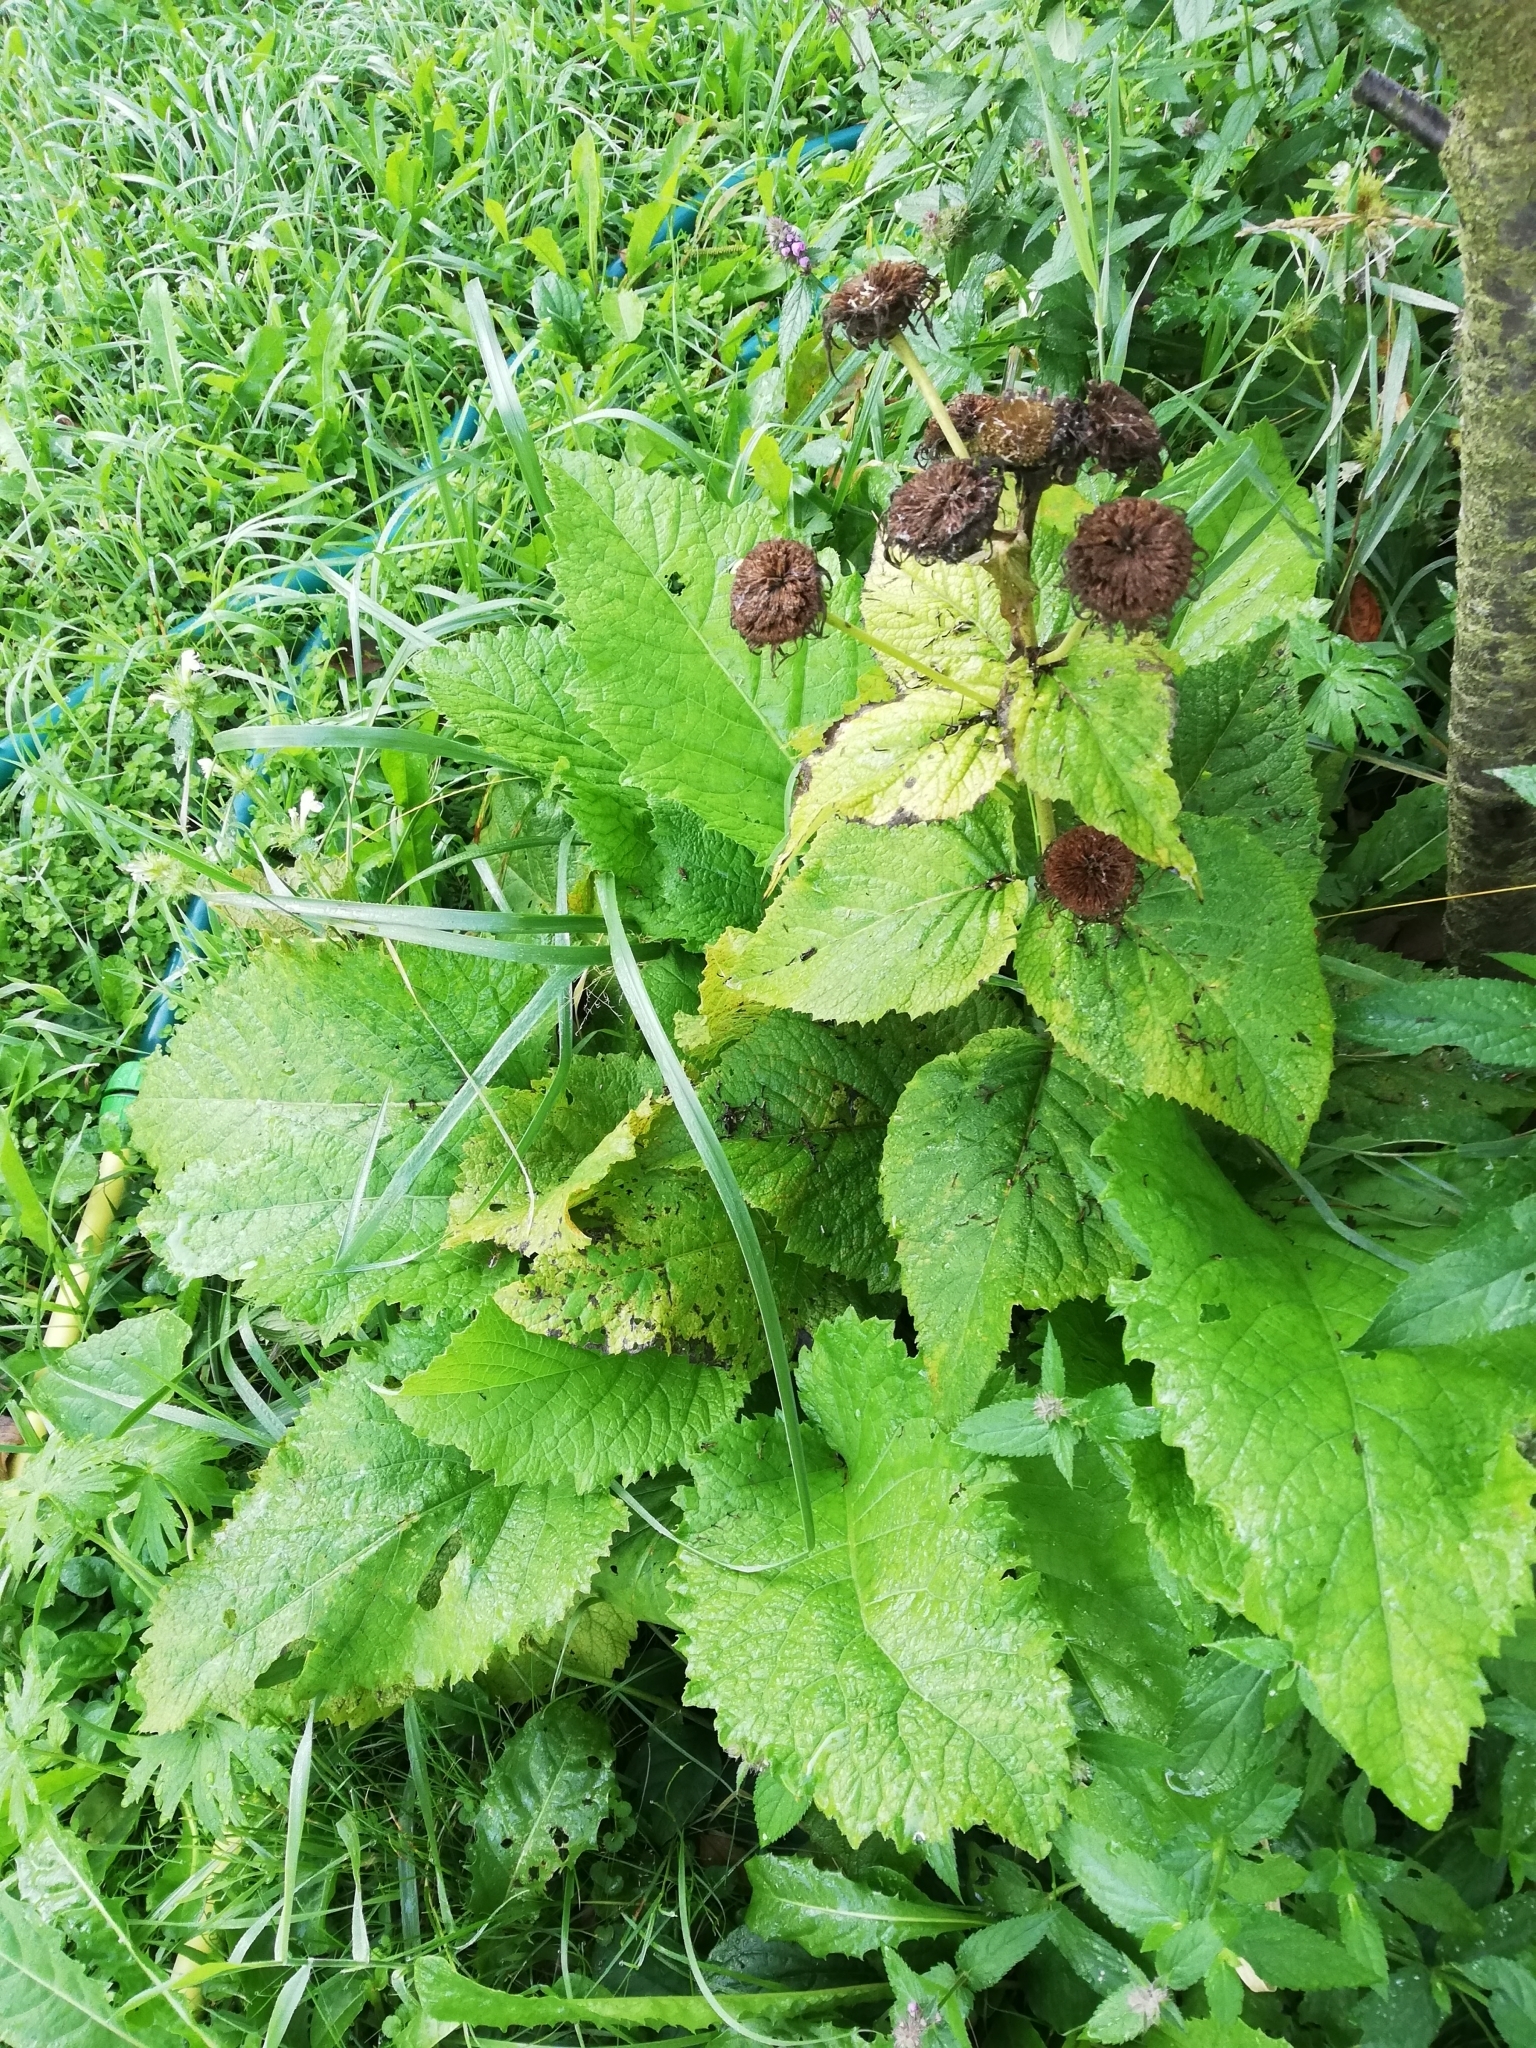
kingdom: Plantae
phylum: Tracheophyta
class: Magnoliopsida
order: Asterales
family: Asteraceae
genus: Telekia
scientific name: Telekia speciosa
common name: Yellow oxeye
